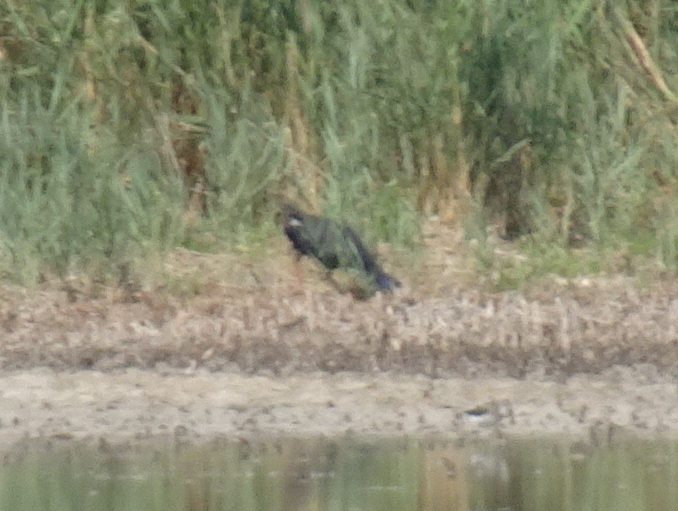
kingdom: Animalia
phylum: Chordata
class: Aves
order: Gruiformes
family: Rallidae
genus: Porphyrio
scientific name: Porphyrio porphyrio
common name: Purple swamphen
